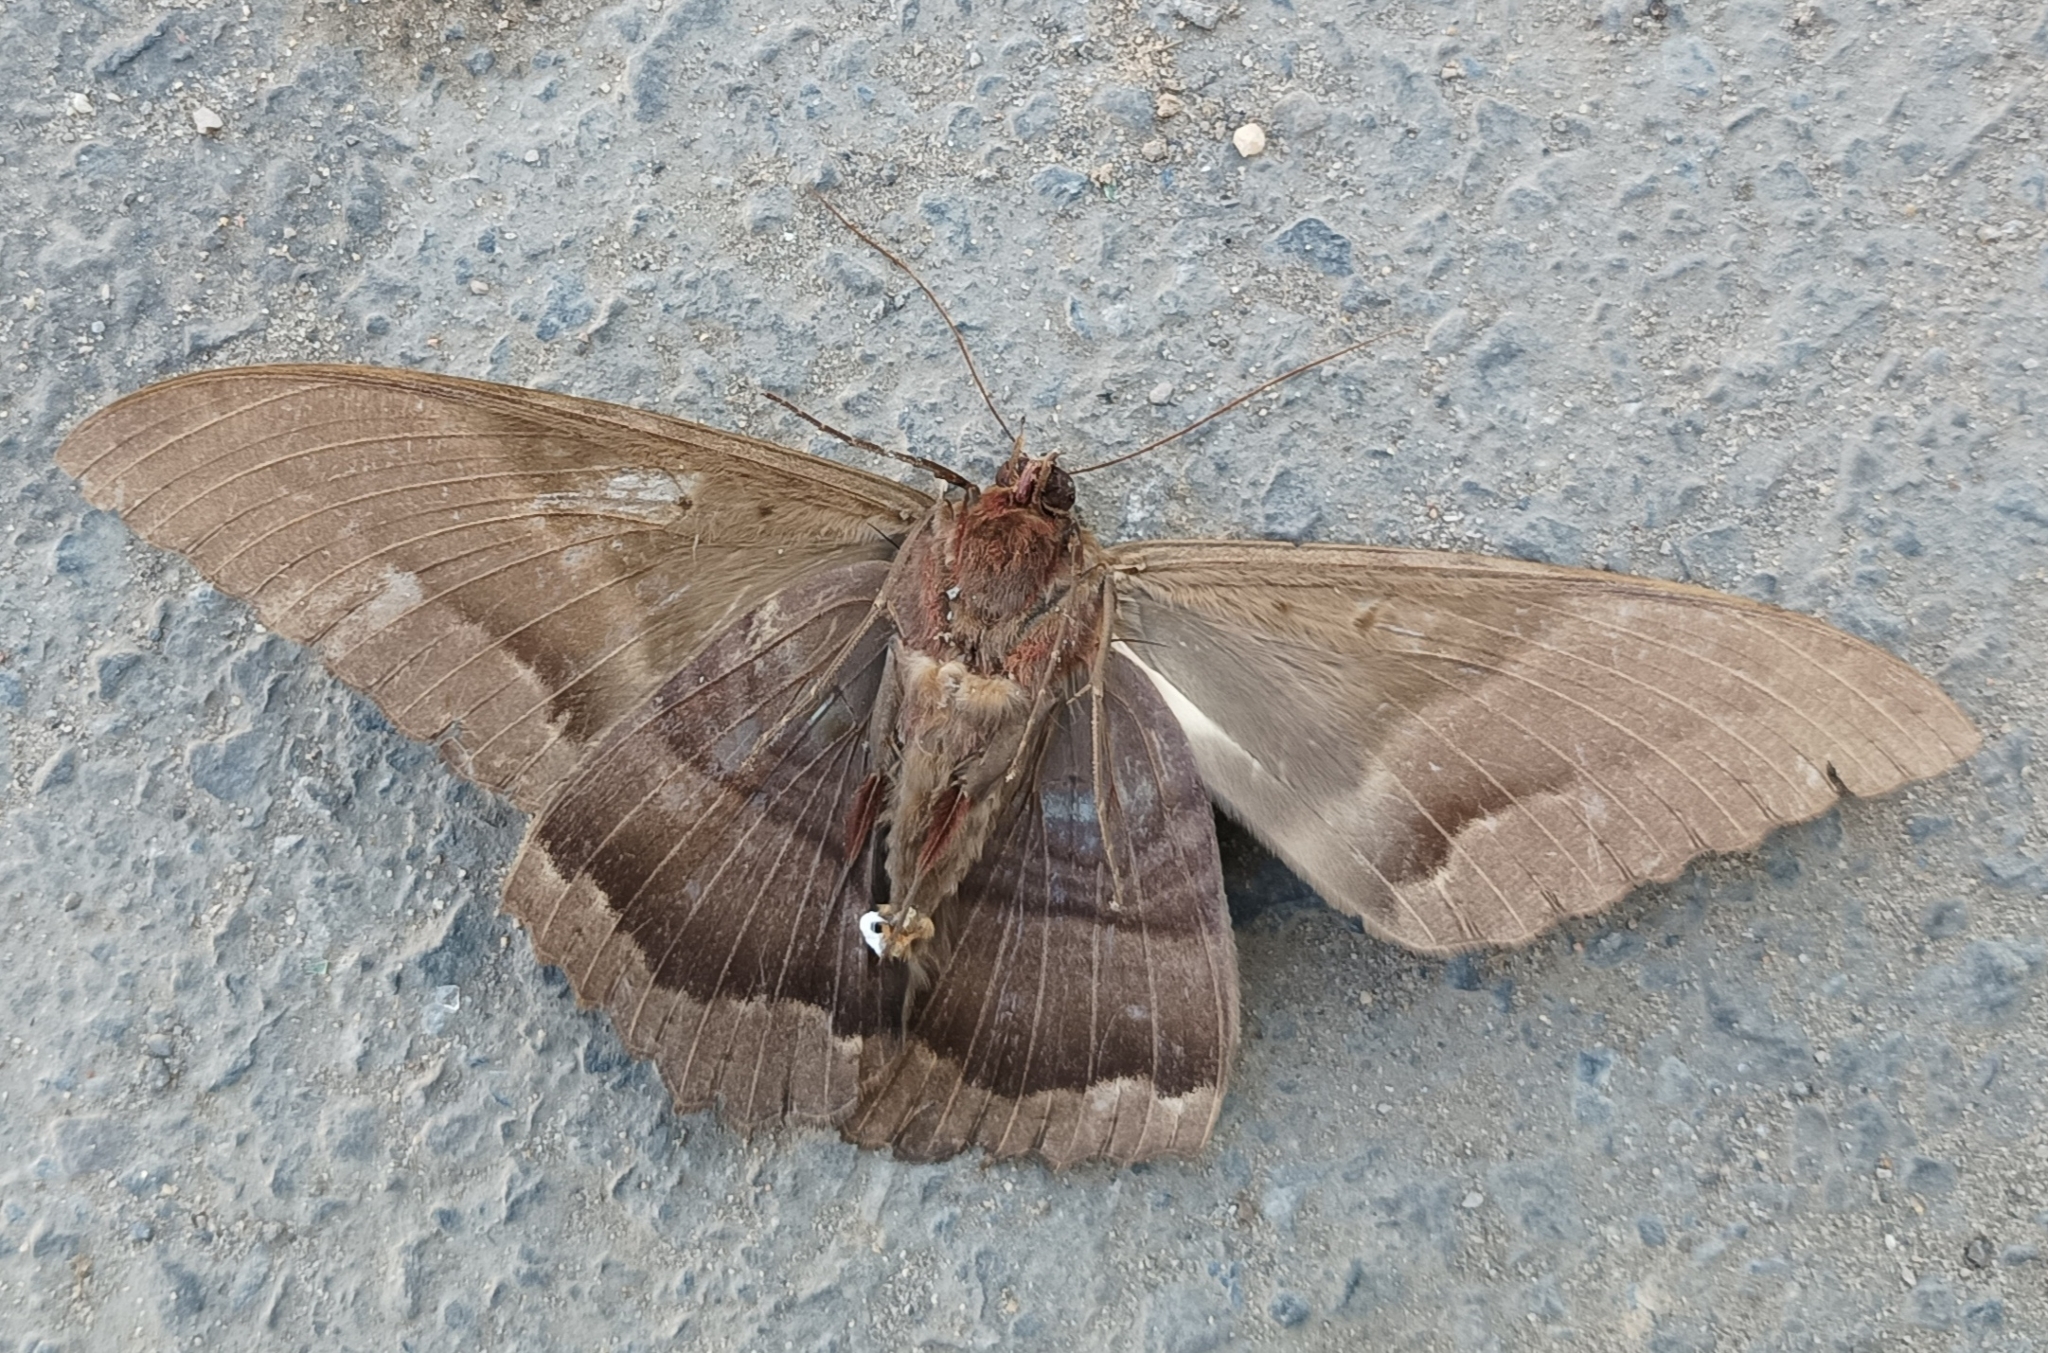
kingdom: Animalia
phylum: Arthropoda
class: Insecta
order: Lepidoptera
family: Erebidae
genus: Ascalapha
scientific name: Ascalapha odorata
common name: Black witch
